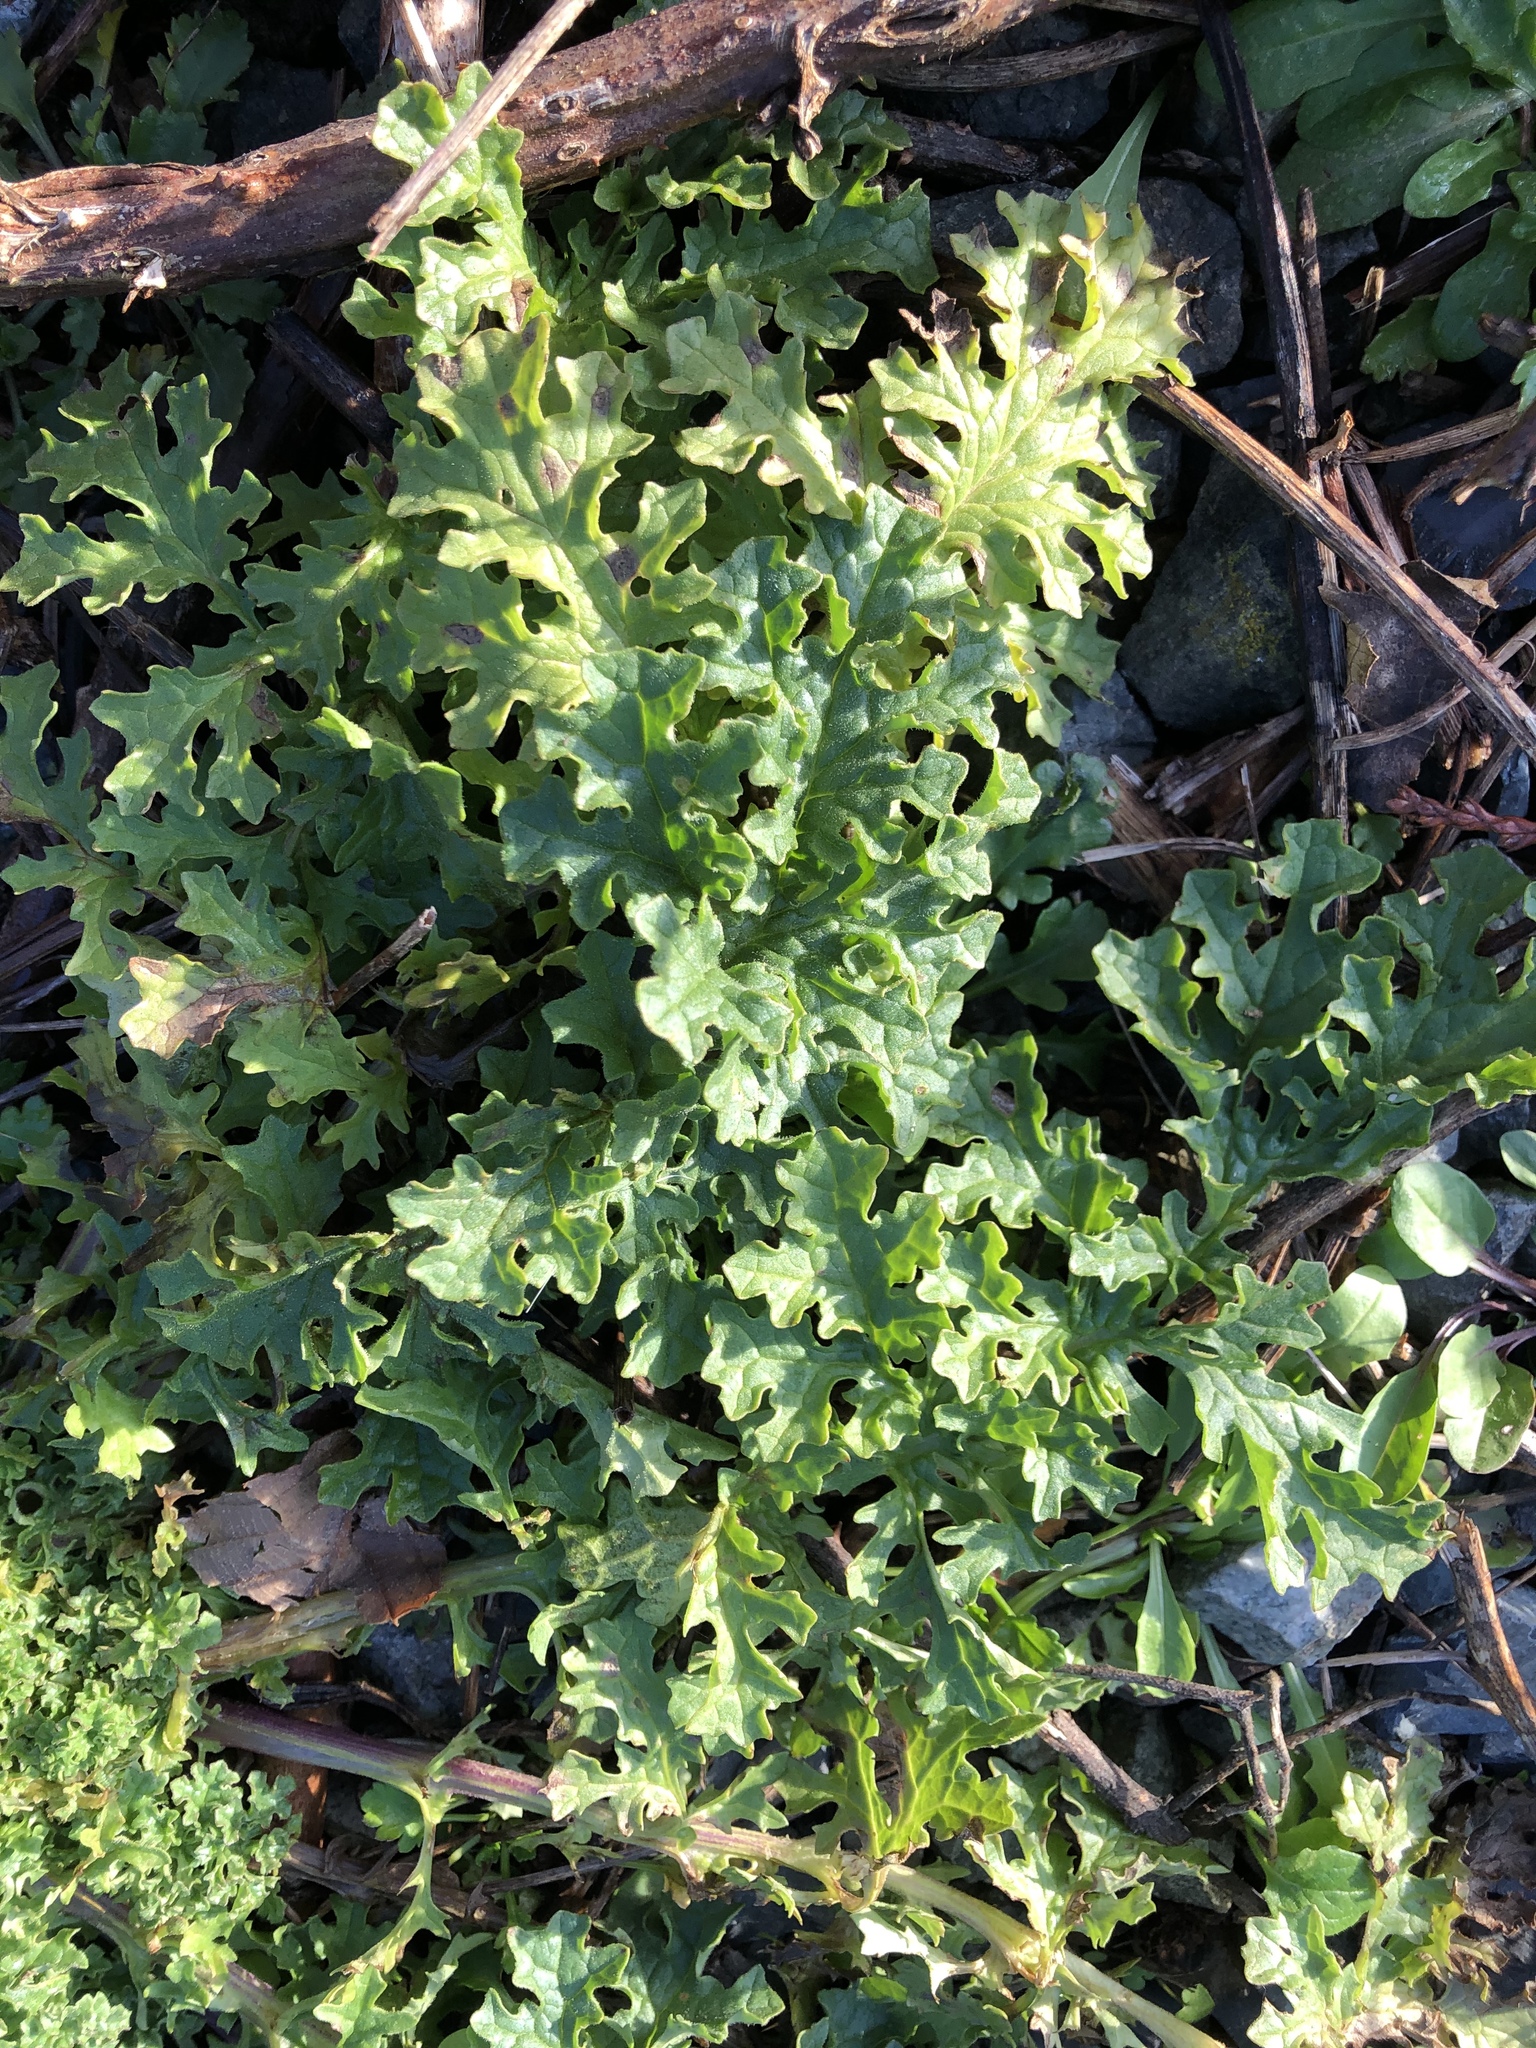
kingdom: Plantae
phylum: Tracheophyta
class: Magnoliopsida
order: Asterales
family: Asteraceae
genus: Jacobaea
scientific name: Jacobaea vulgaris
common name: Stinking willie
